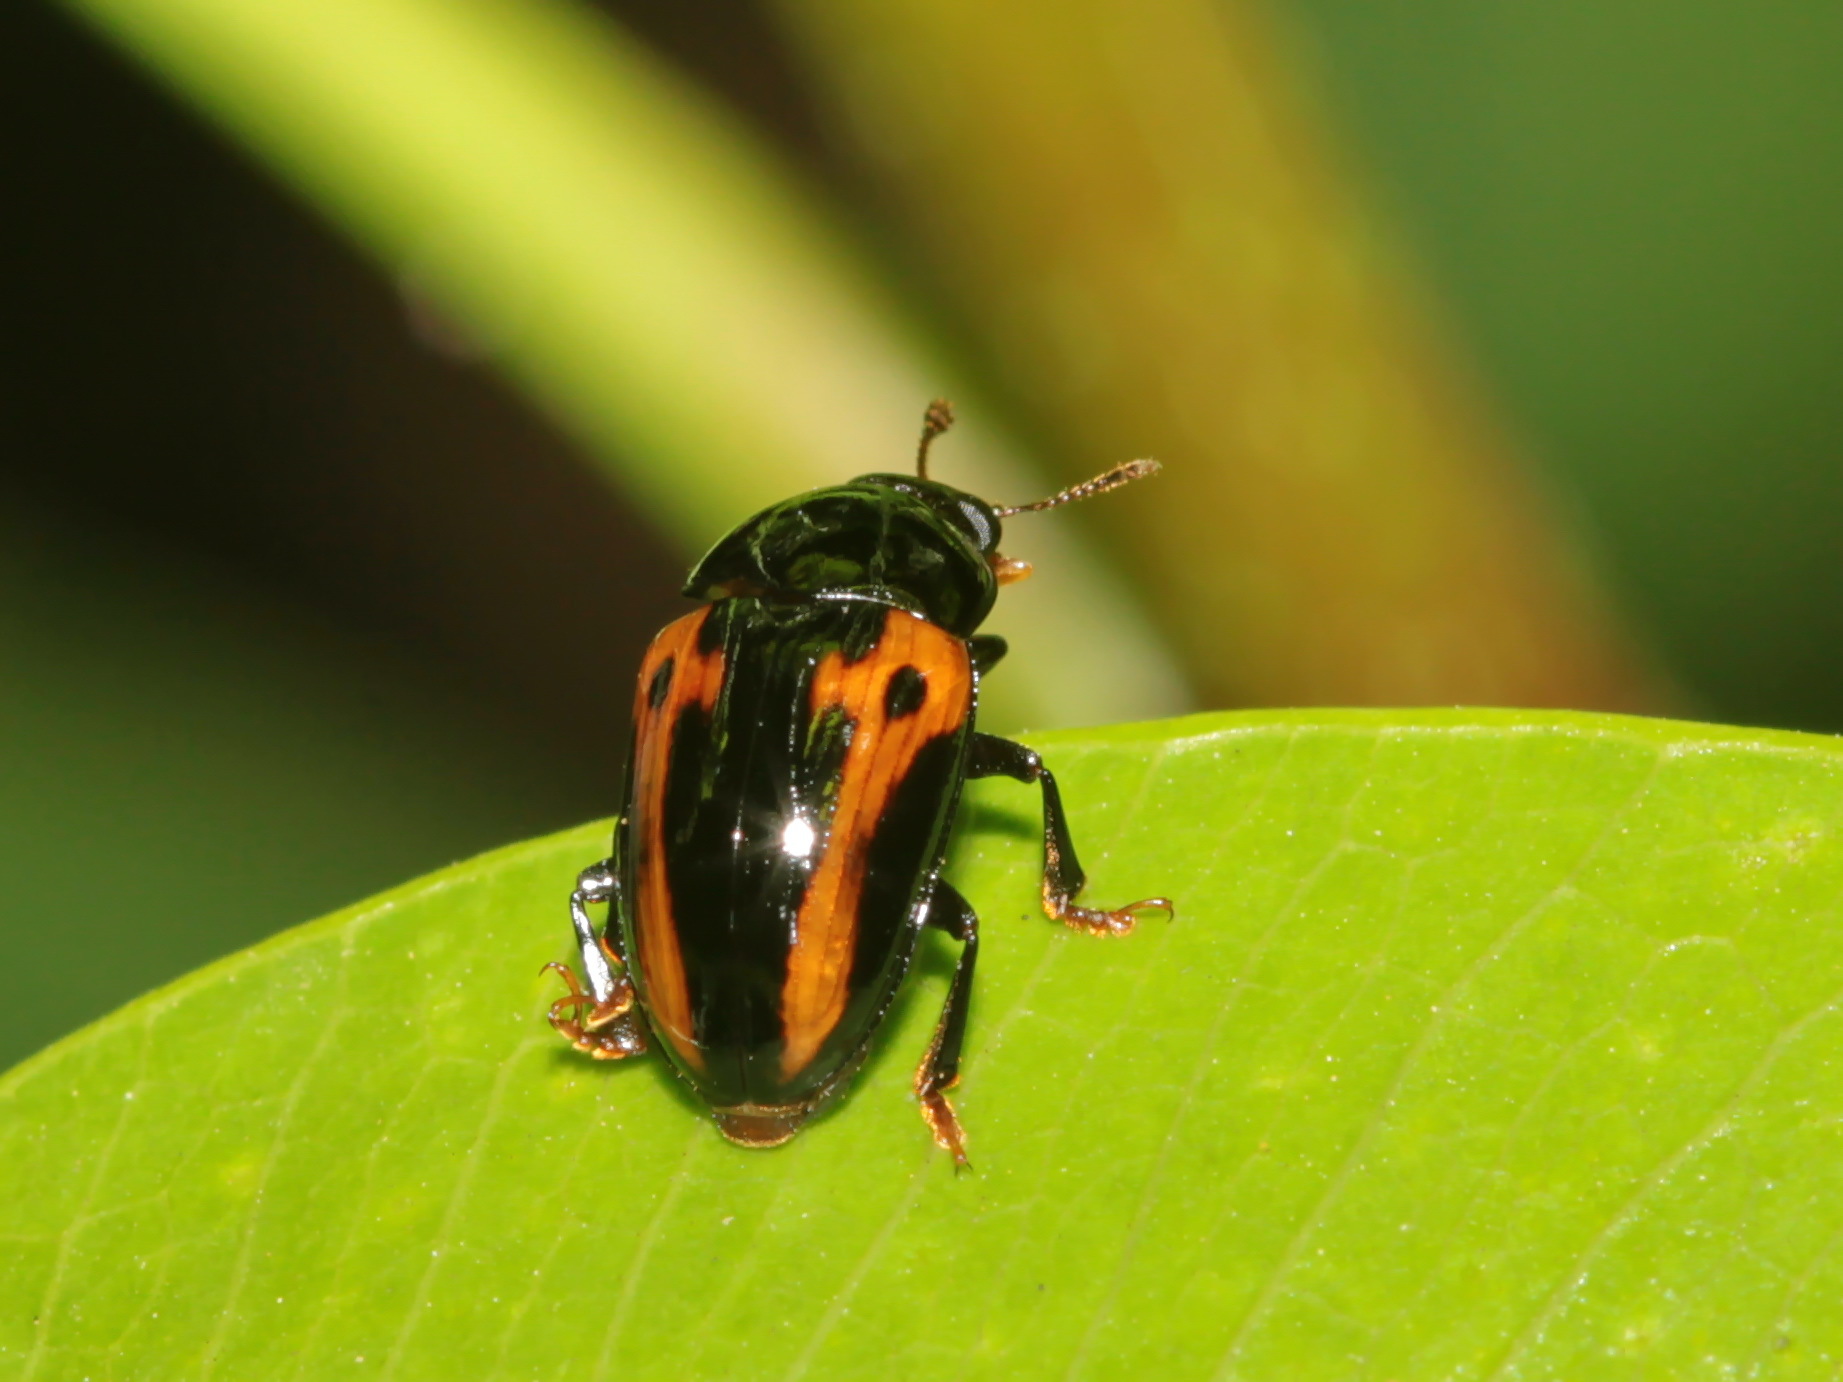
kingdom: Animalia
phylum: Arthropoda
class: Insecta
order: Coleoptera
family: Erotylidae
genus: Amblyopus
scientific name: Amblyopus
